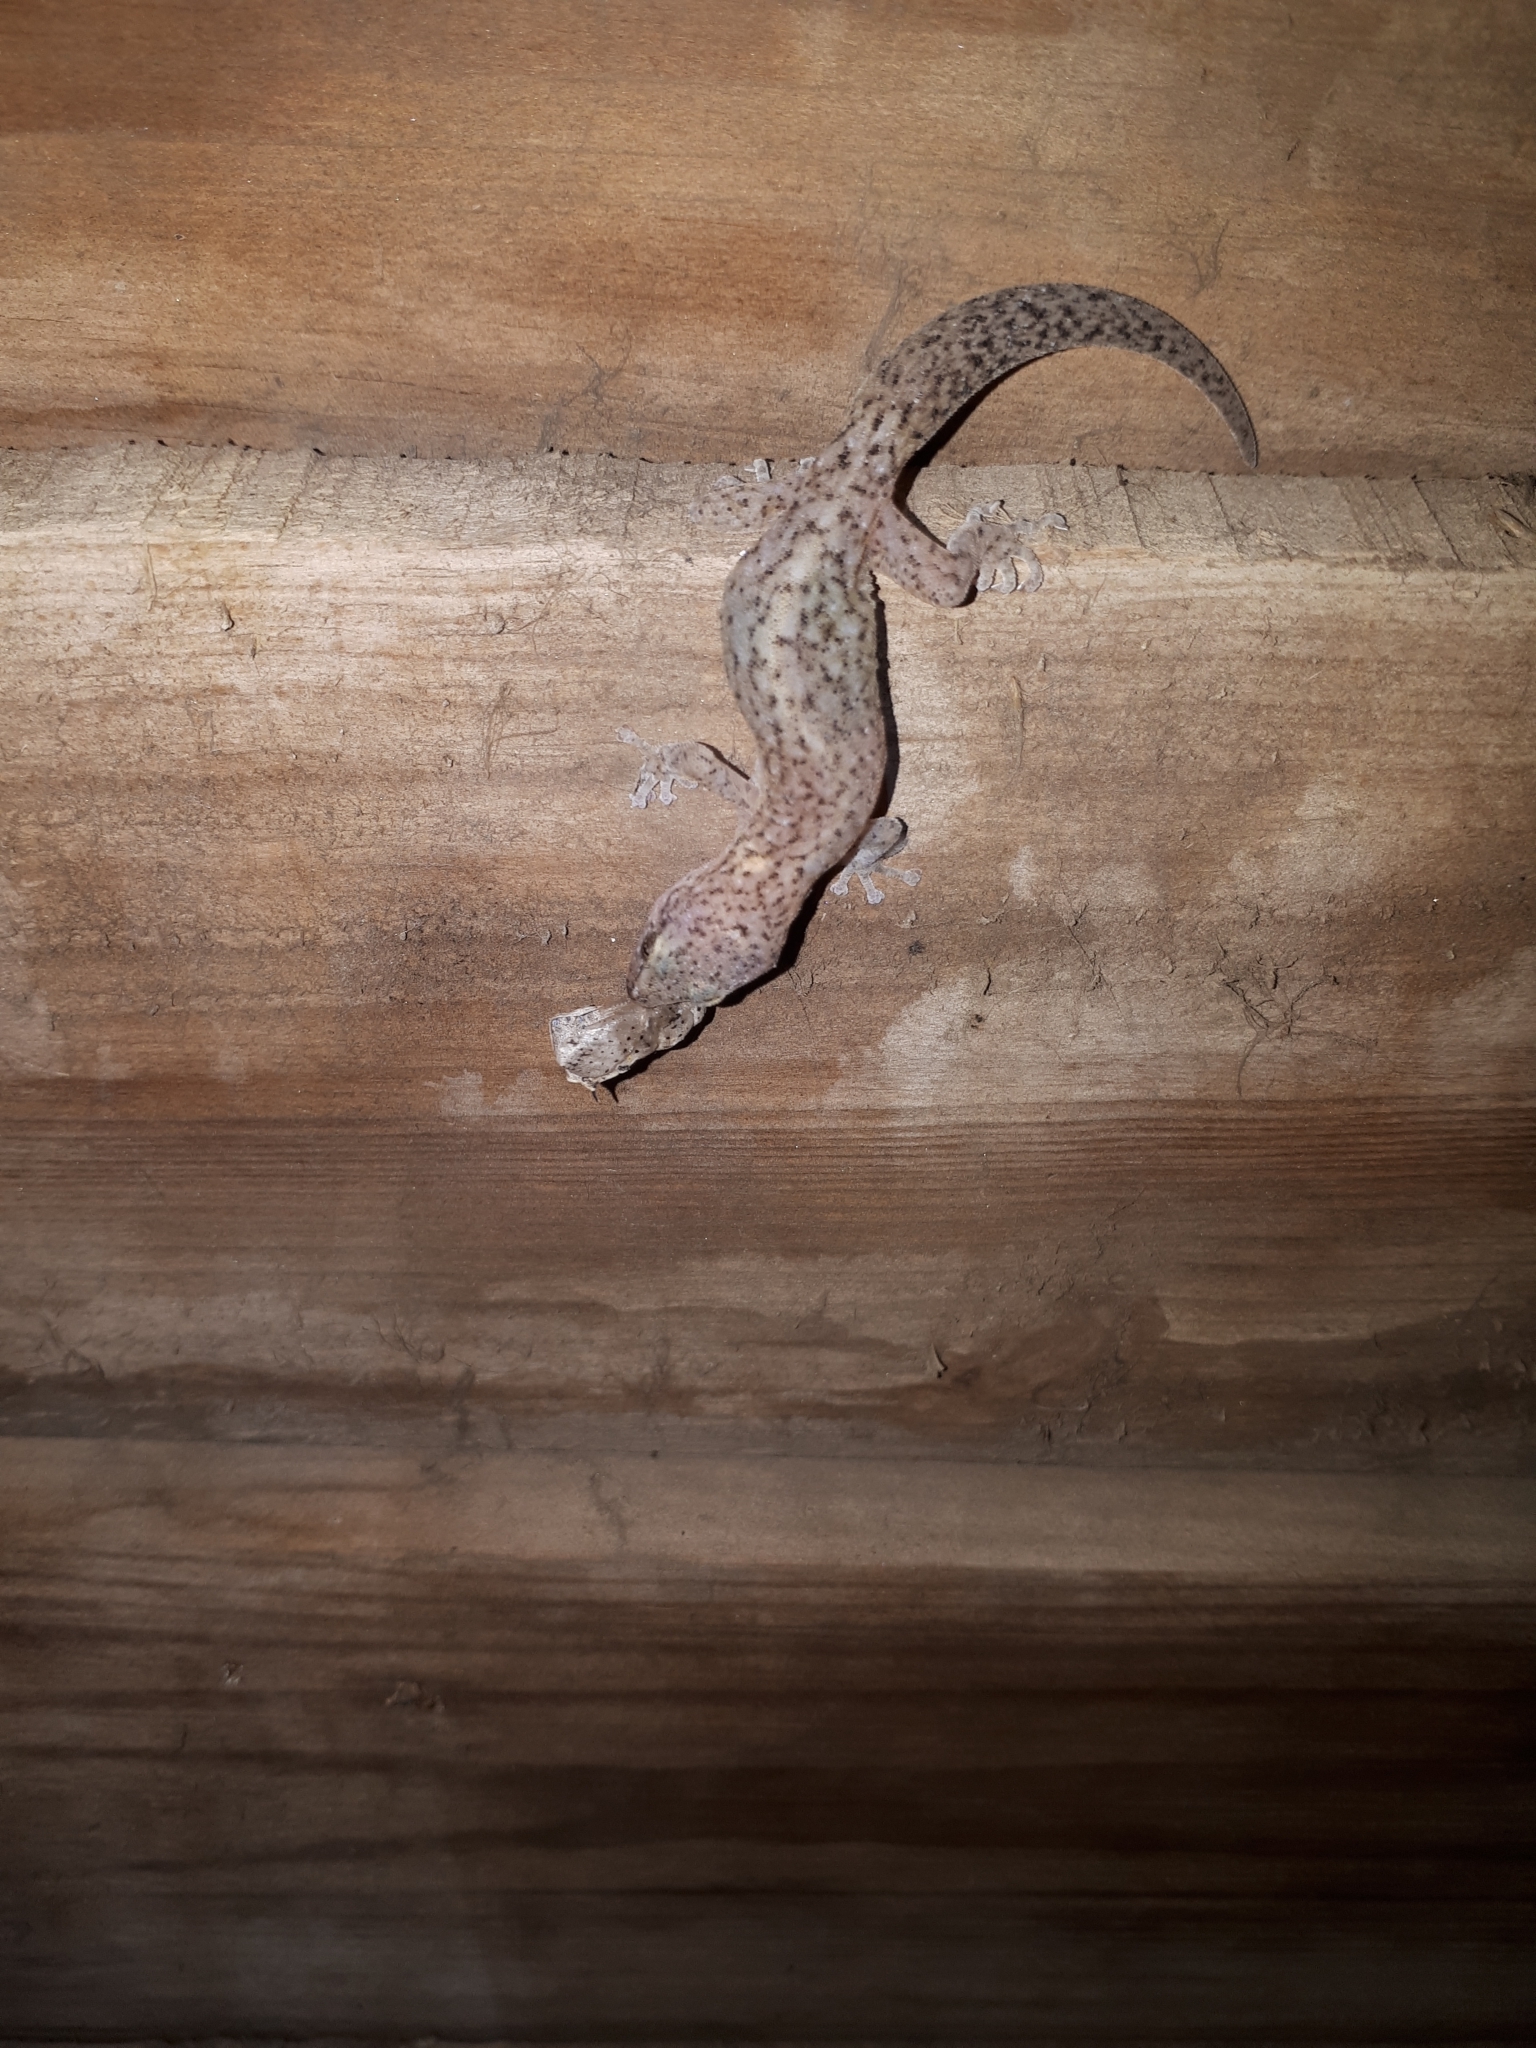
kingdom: Animalia
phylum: Chordata
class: Squamata
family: Gekkonidae
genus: Afrogecko
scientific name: Afrogecko porphyreus
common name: Marbled leaf-toed gecko
